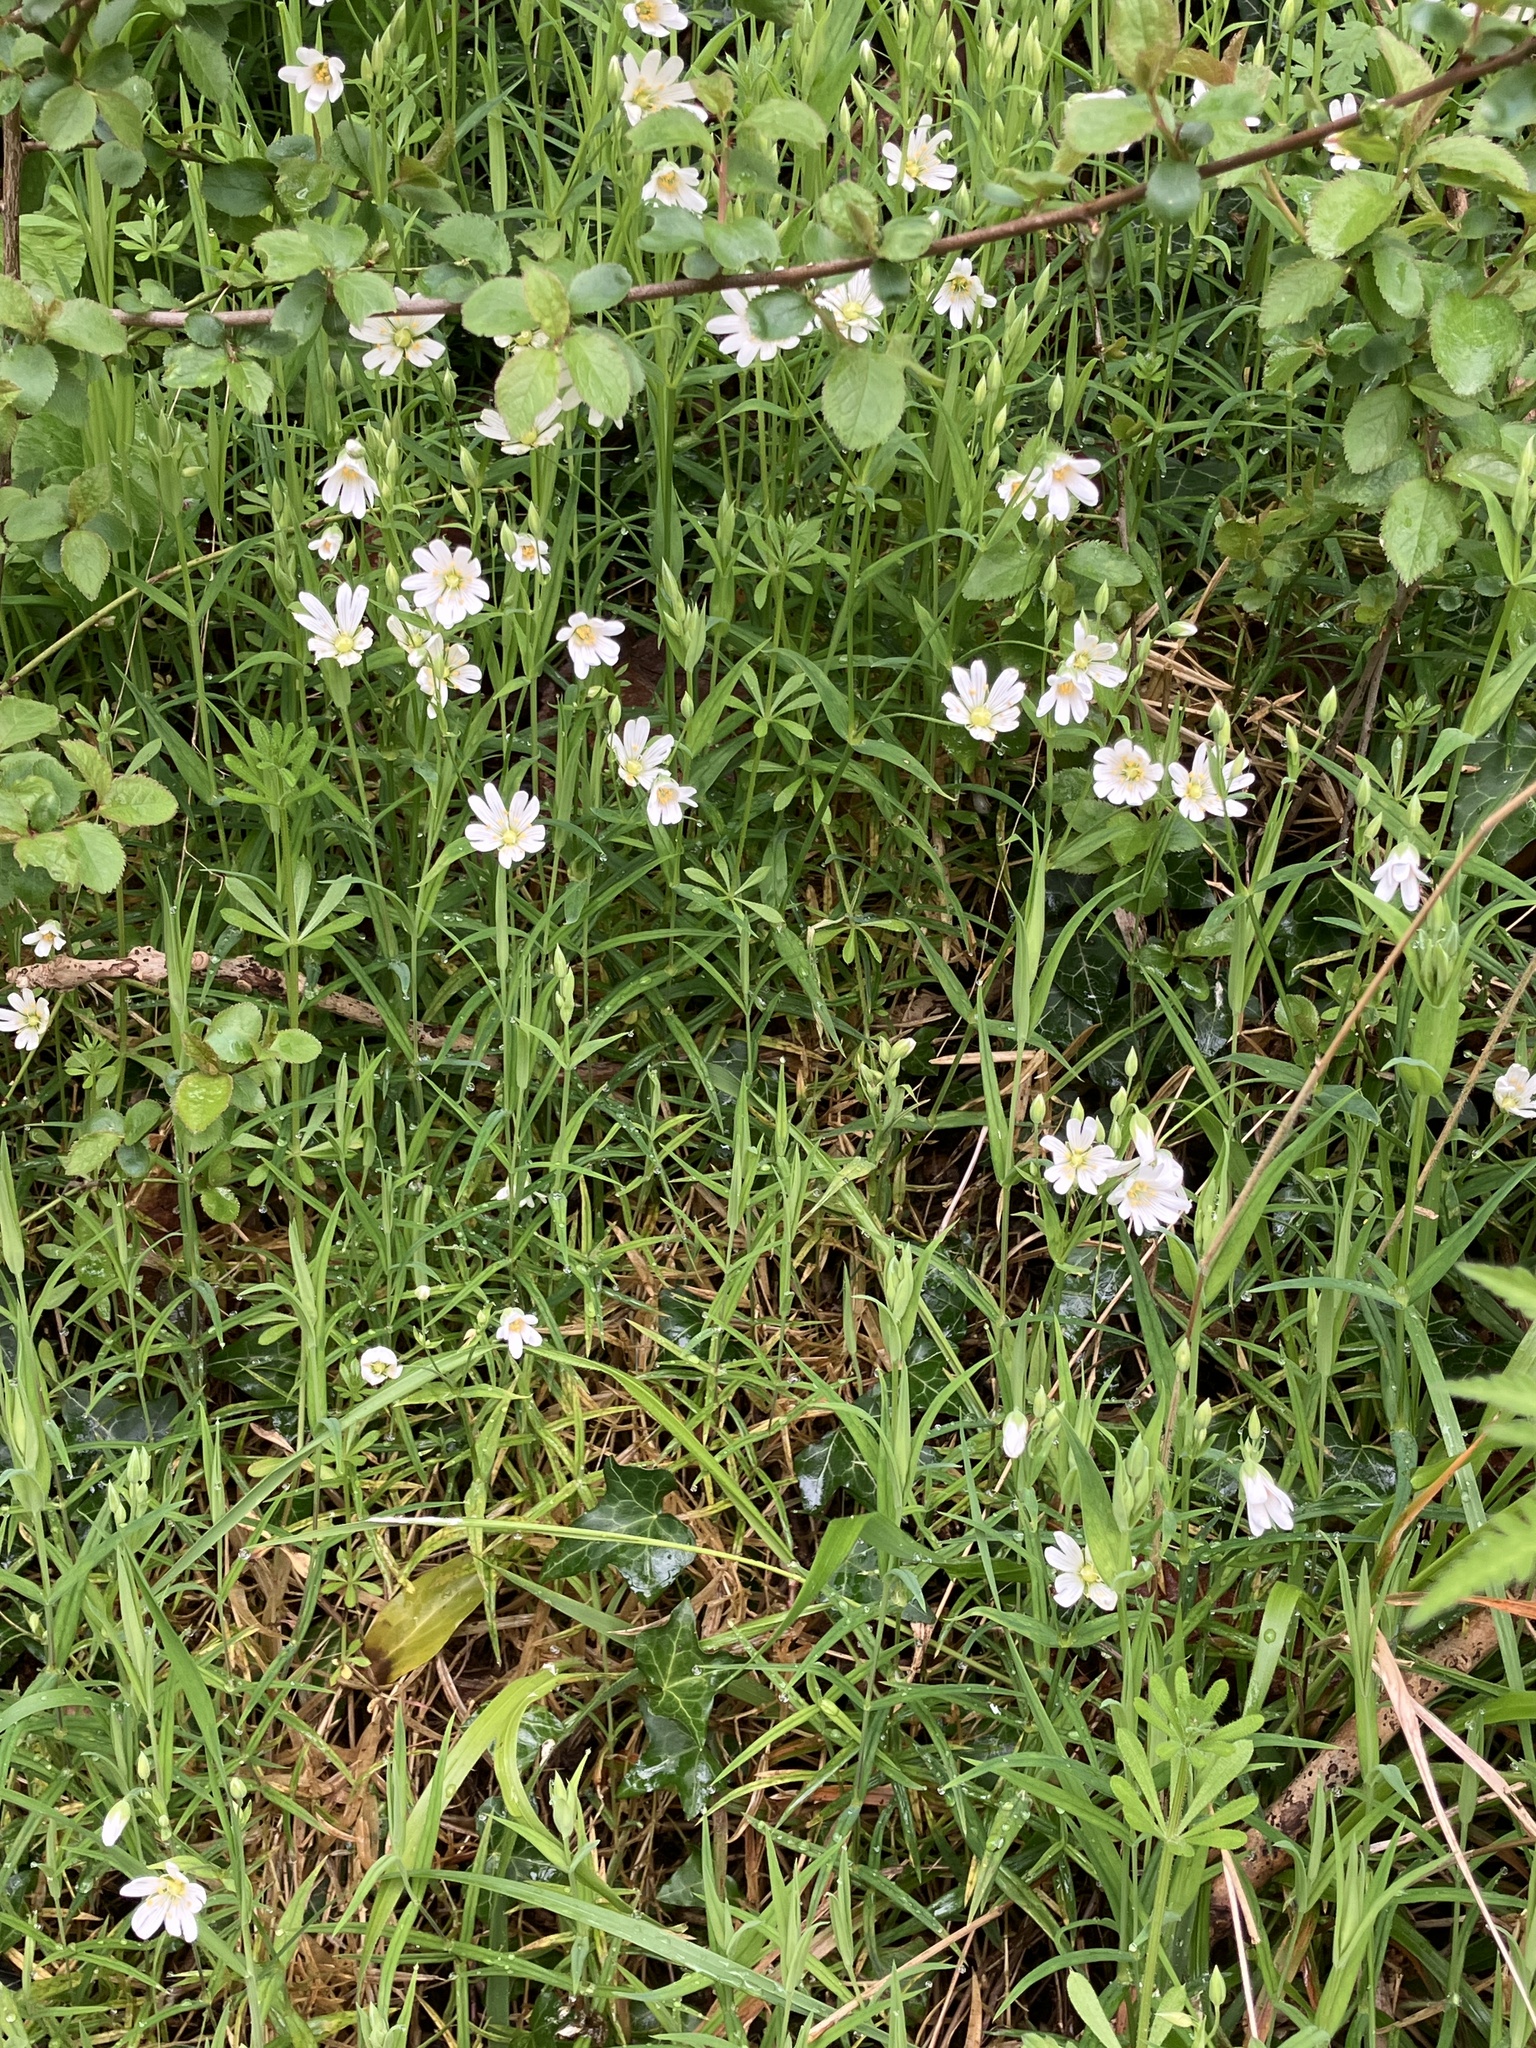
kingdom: Plantae
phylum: Tracheophyta
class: Magnoliopsida
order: Caryophyllales
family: Caryophyllaceae
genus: Rabelera
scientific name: Rabelera holostea
